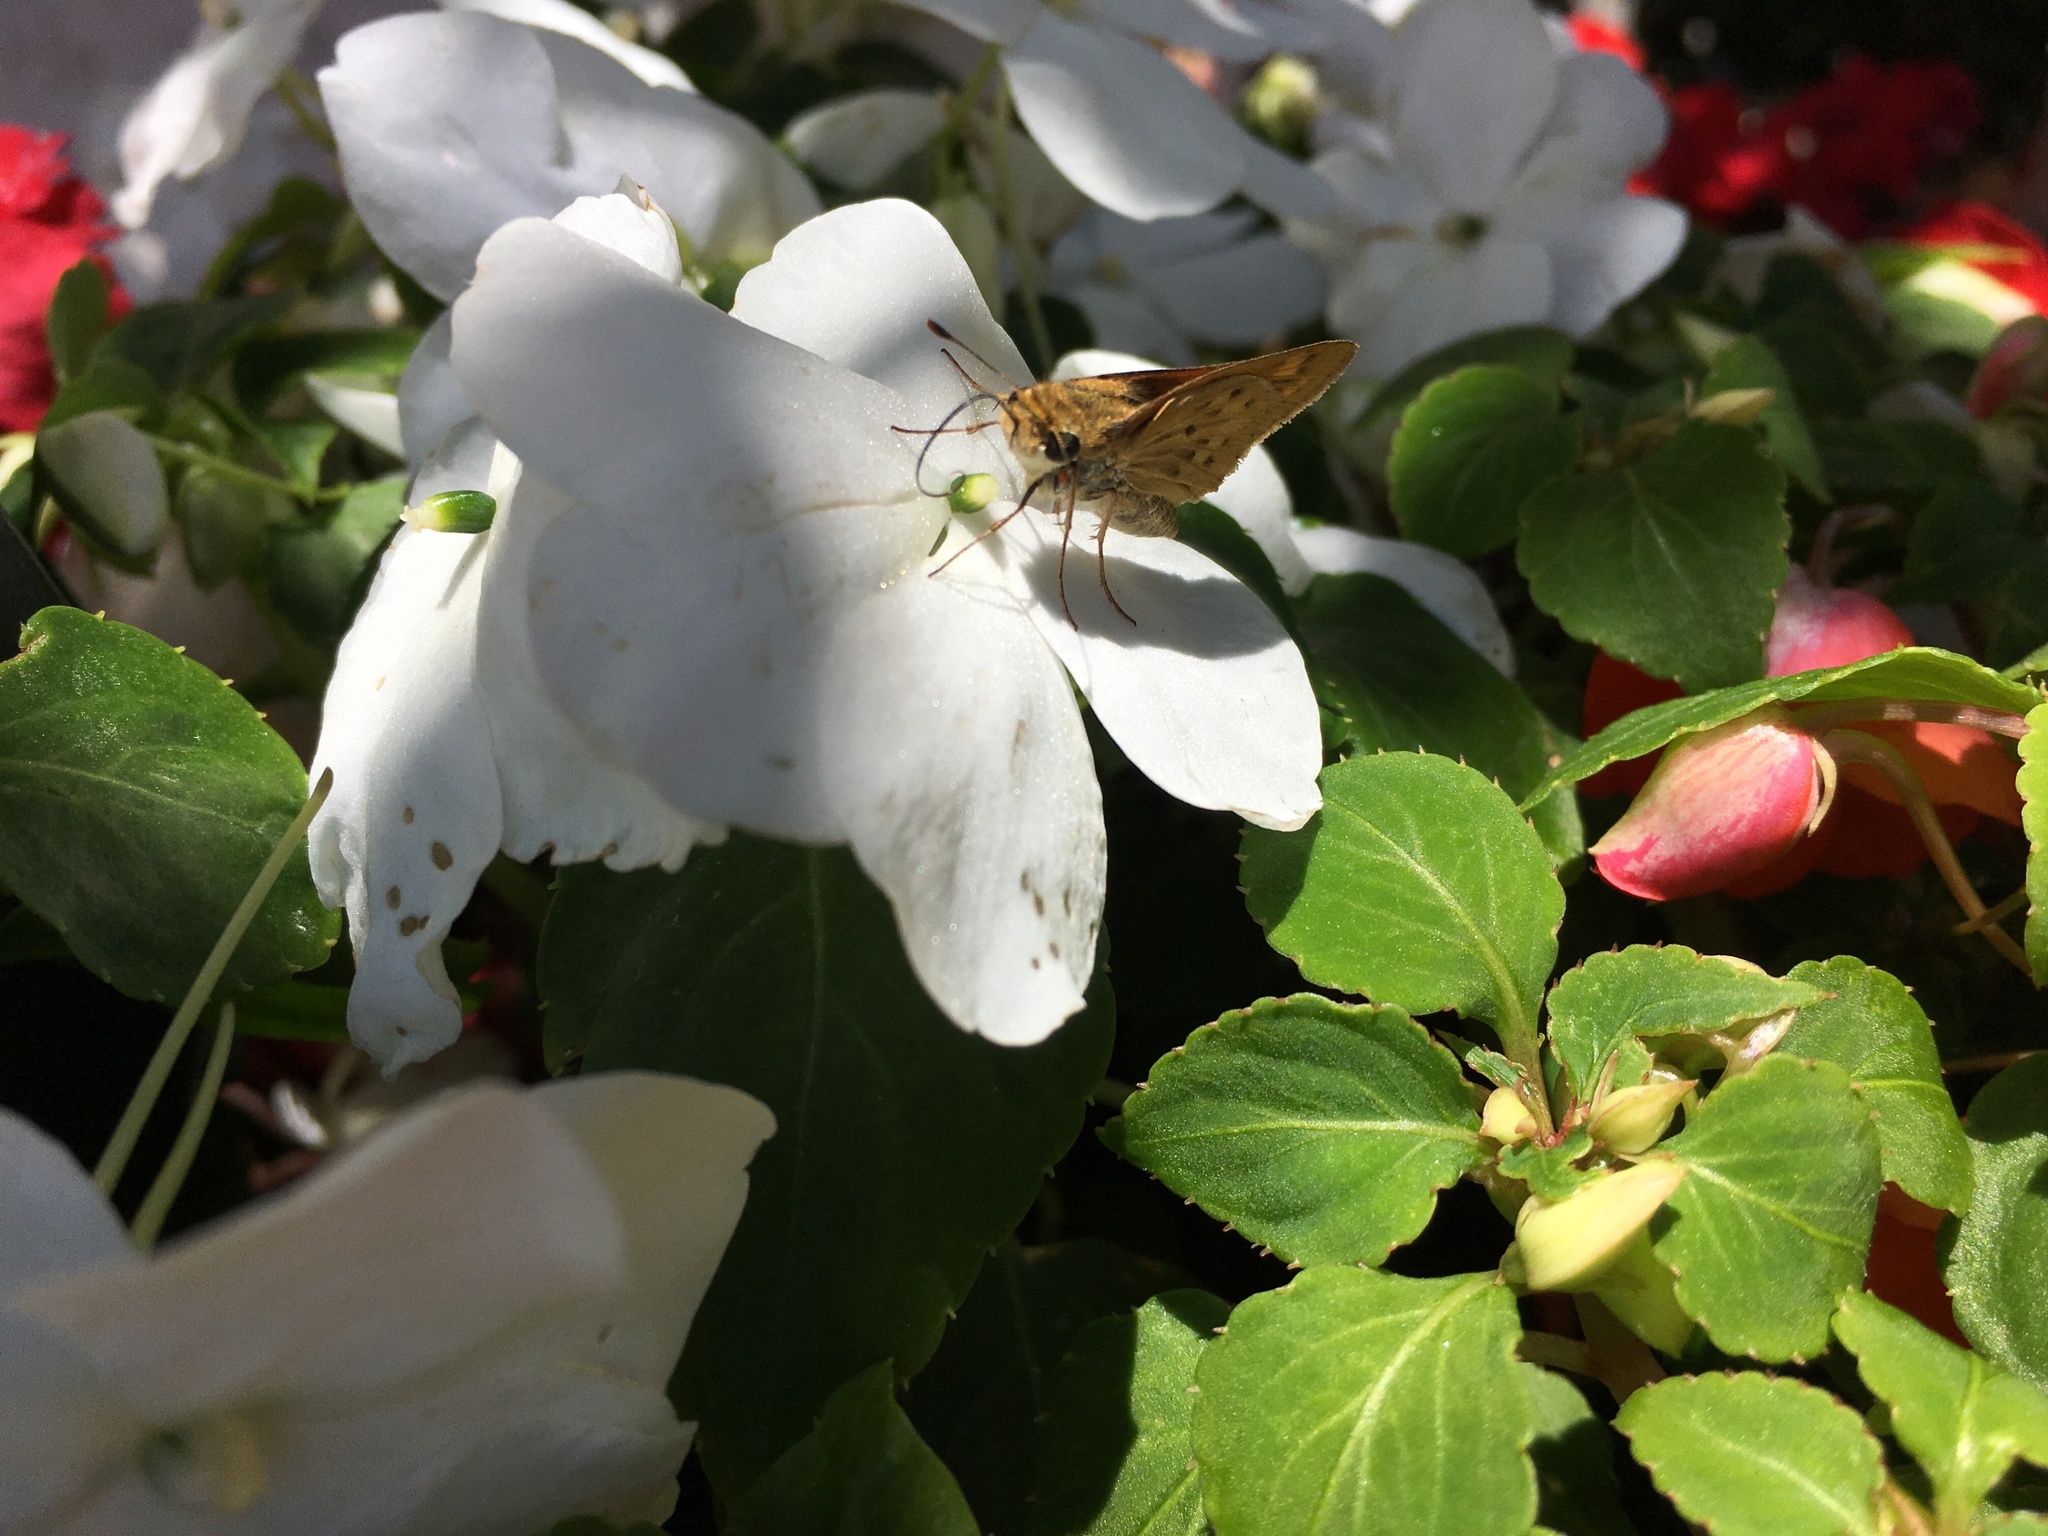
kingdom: Animalia
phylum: Arthropoda
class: Insecta
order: Lepidoptera
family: Hesperiidae
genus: Hylephila
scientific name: Hylephila phyleus
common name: Fiery skipper
